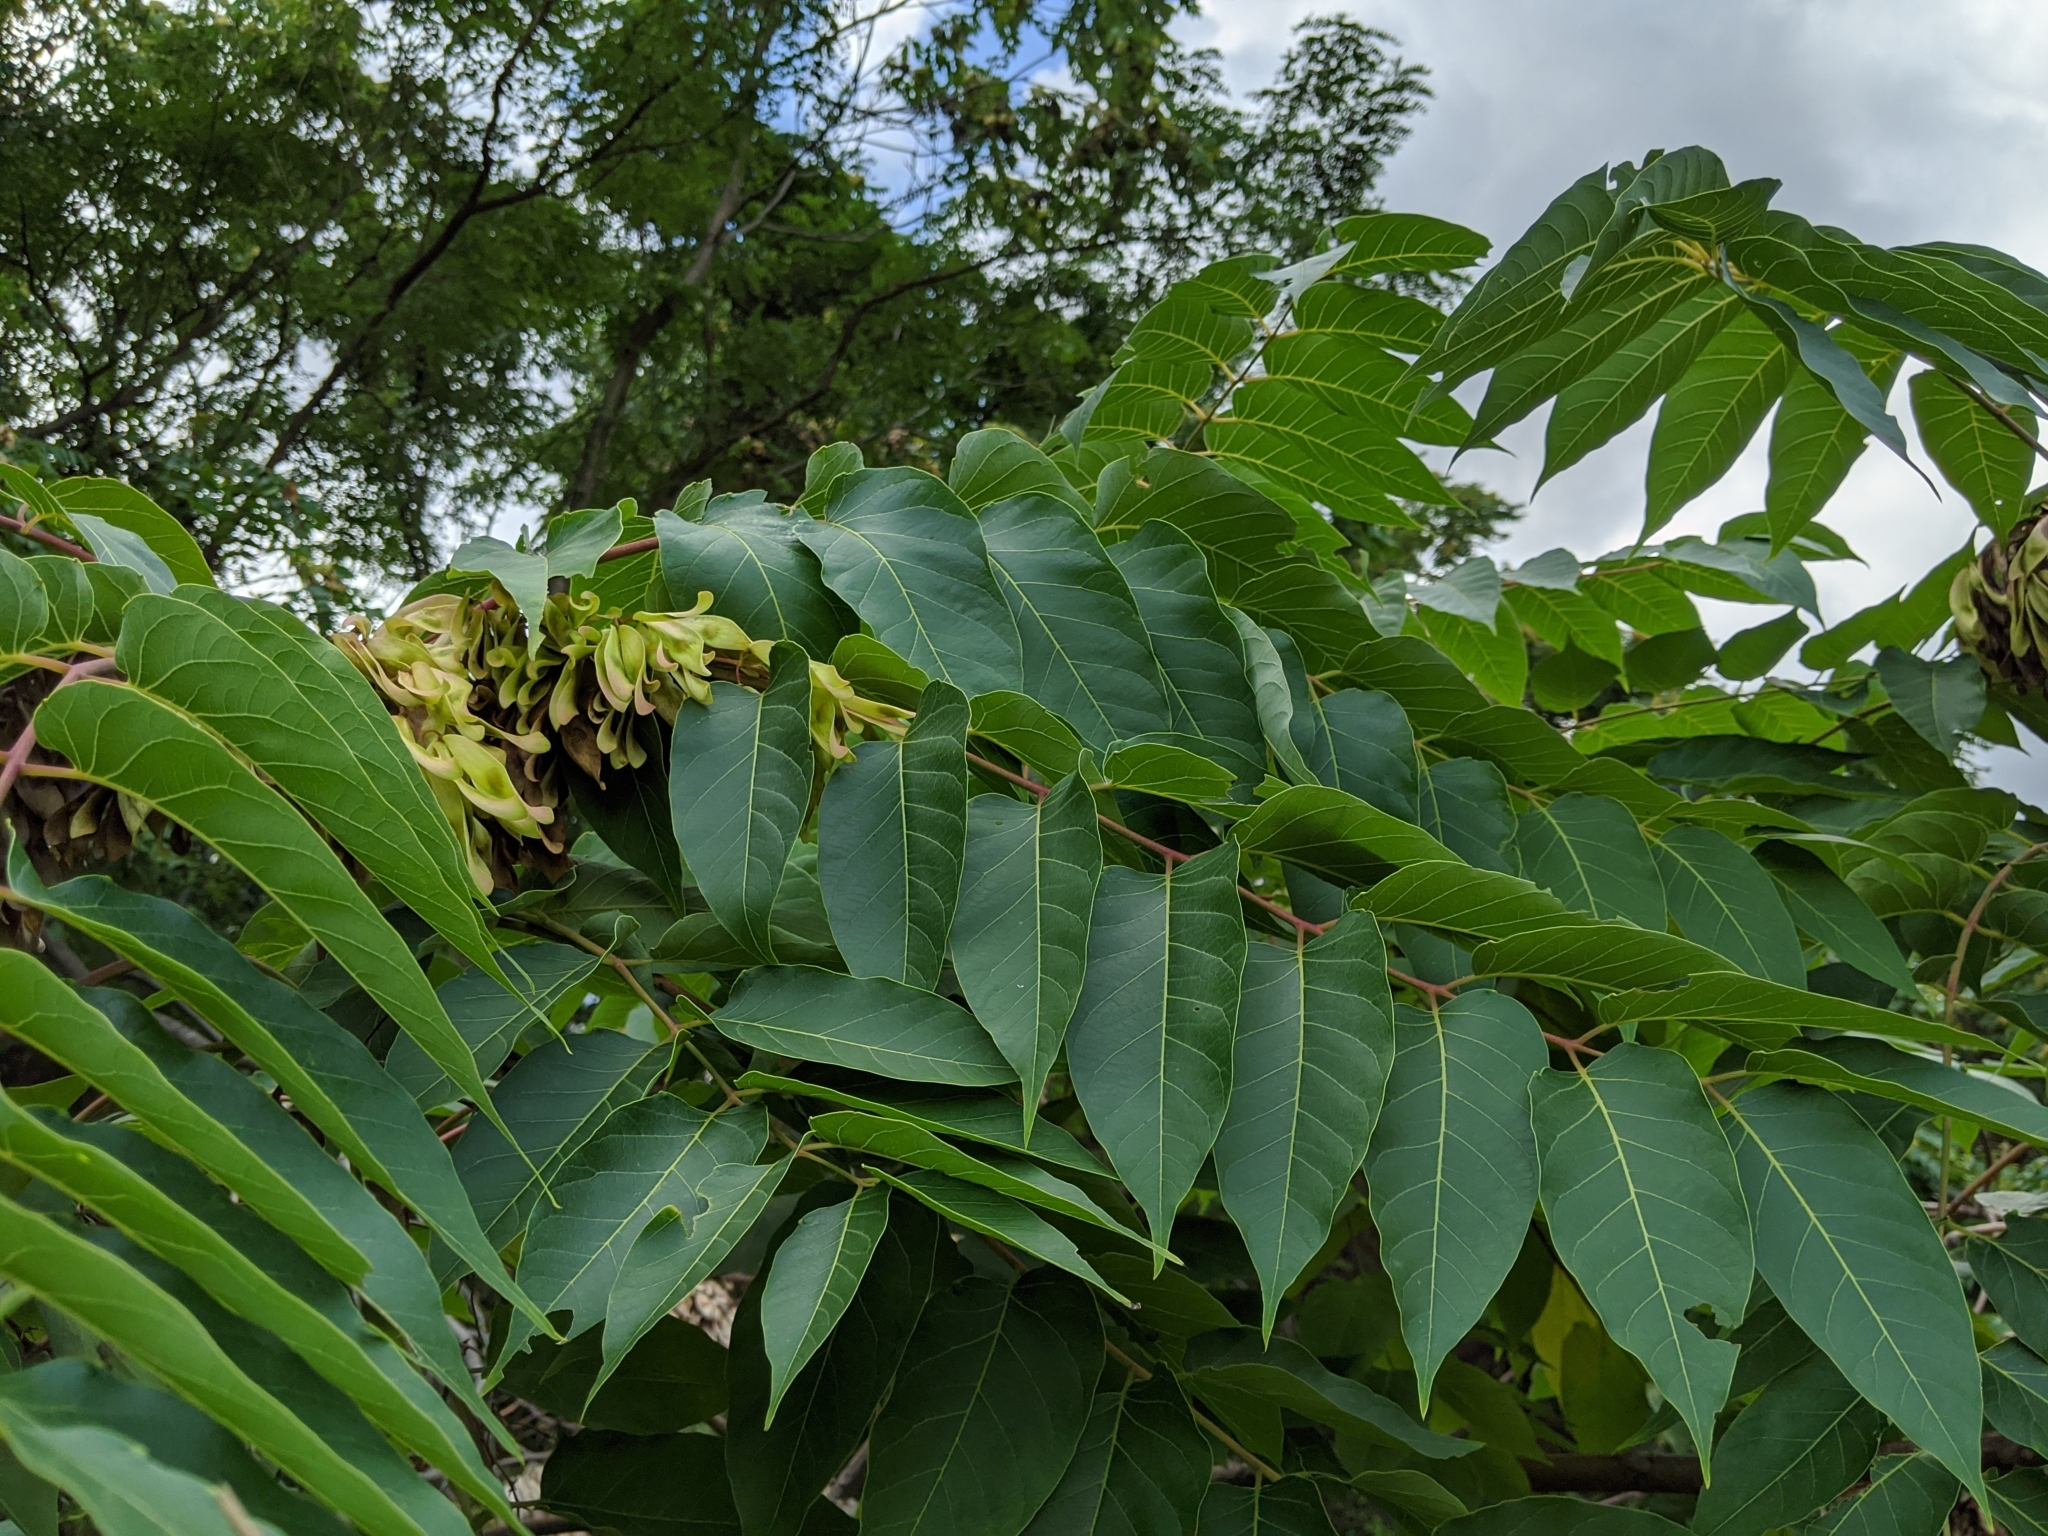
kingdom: Plantae
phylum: Tracheophyta
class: Magnoliopsida
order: Sapindales
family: Simaroubaceae
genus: Ailanthus
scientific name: Ailanthus altissima
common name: Tree-of-heaven
